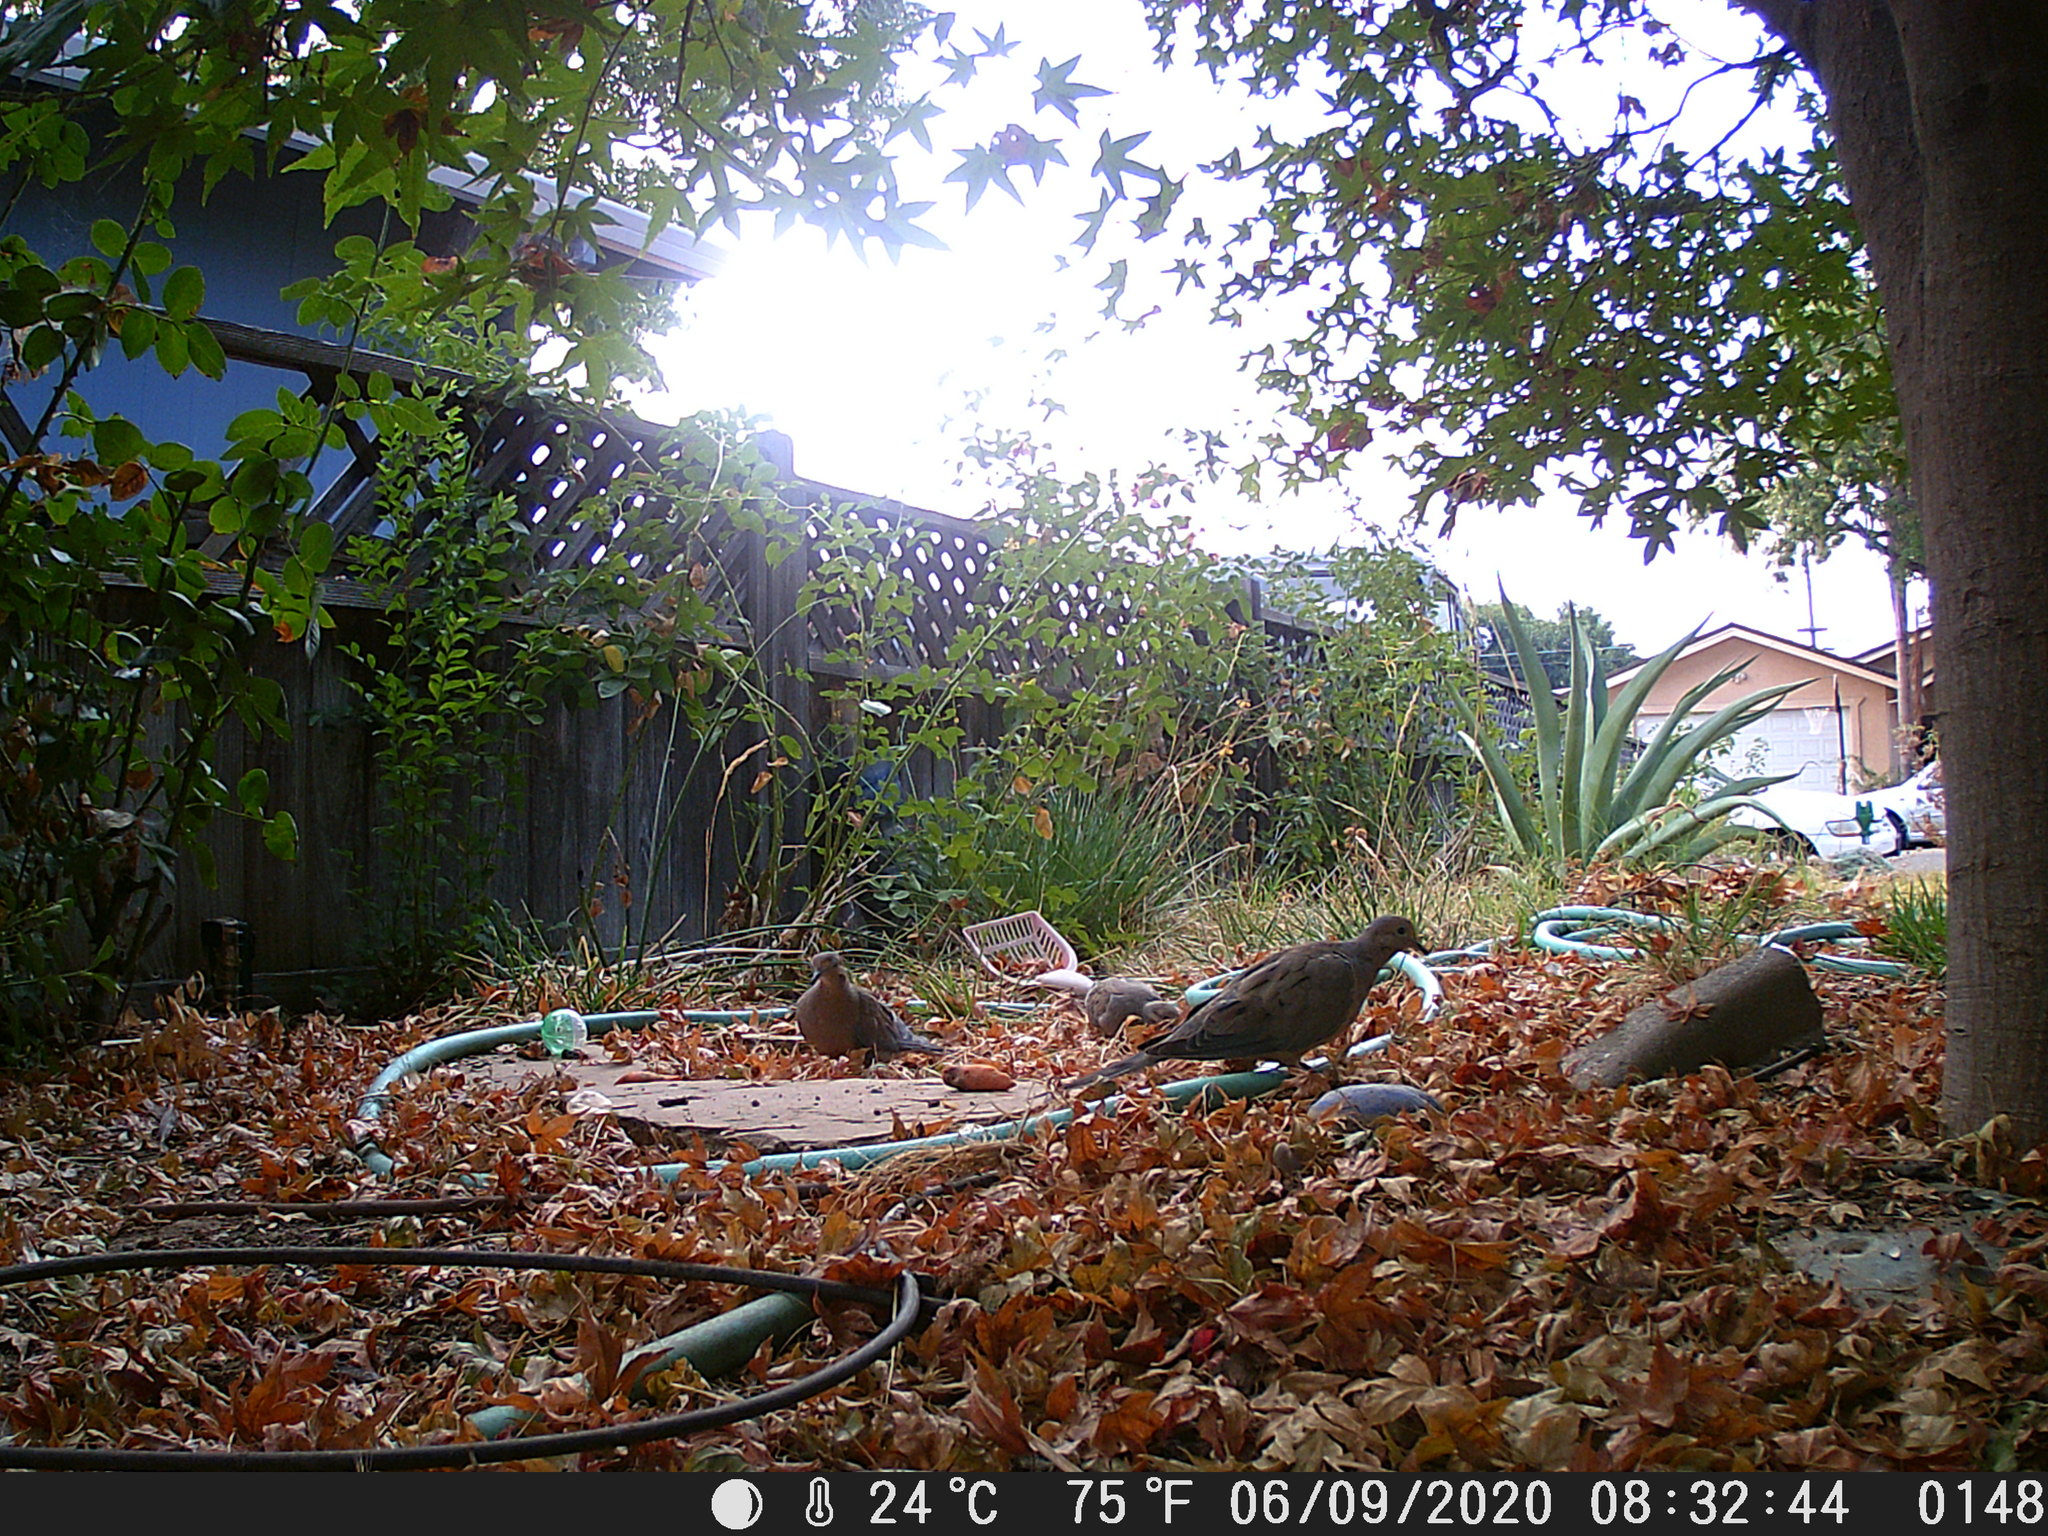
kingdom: Animalia
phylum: Chordata
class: Aves
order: Columbiformes
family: Columbidae
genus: Zenaida
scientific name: Zenaida macroura
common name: Mourning dove
